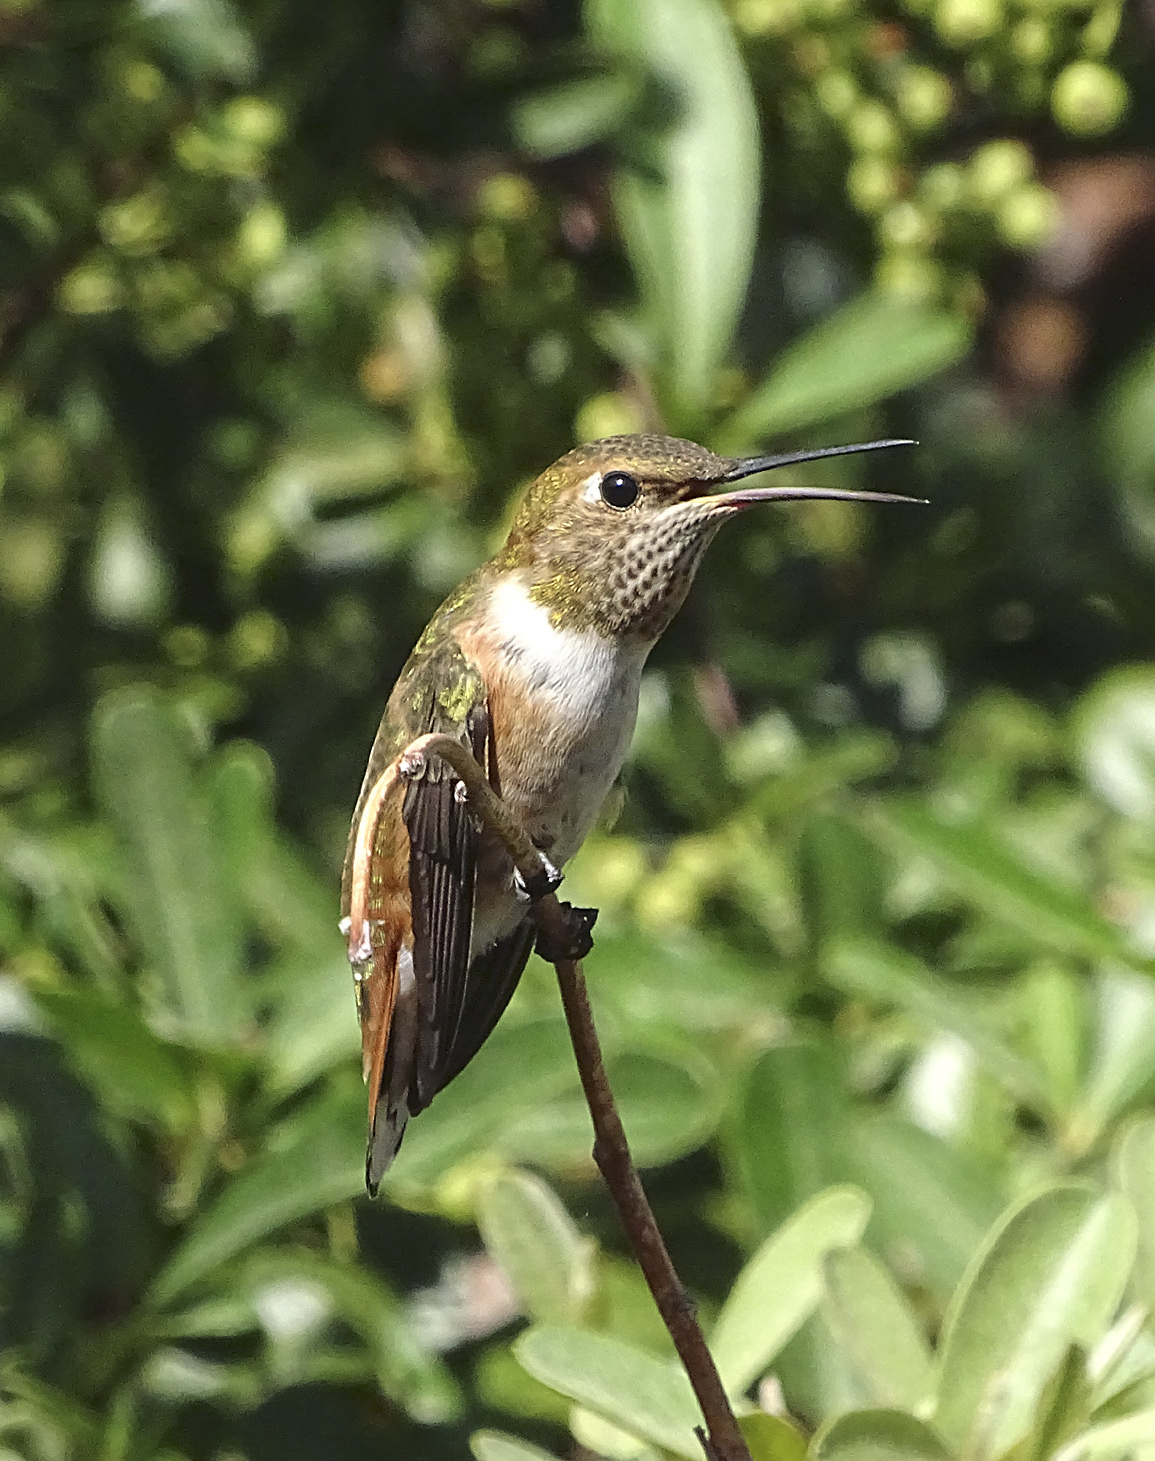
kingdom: Animalia
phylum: Chordata
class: Aves
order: Apodiformes
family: Trochilidae
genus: Selasphorus
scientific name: Selasphorus rufus
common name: Rufous hummingbird
